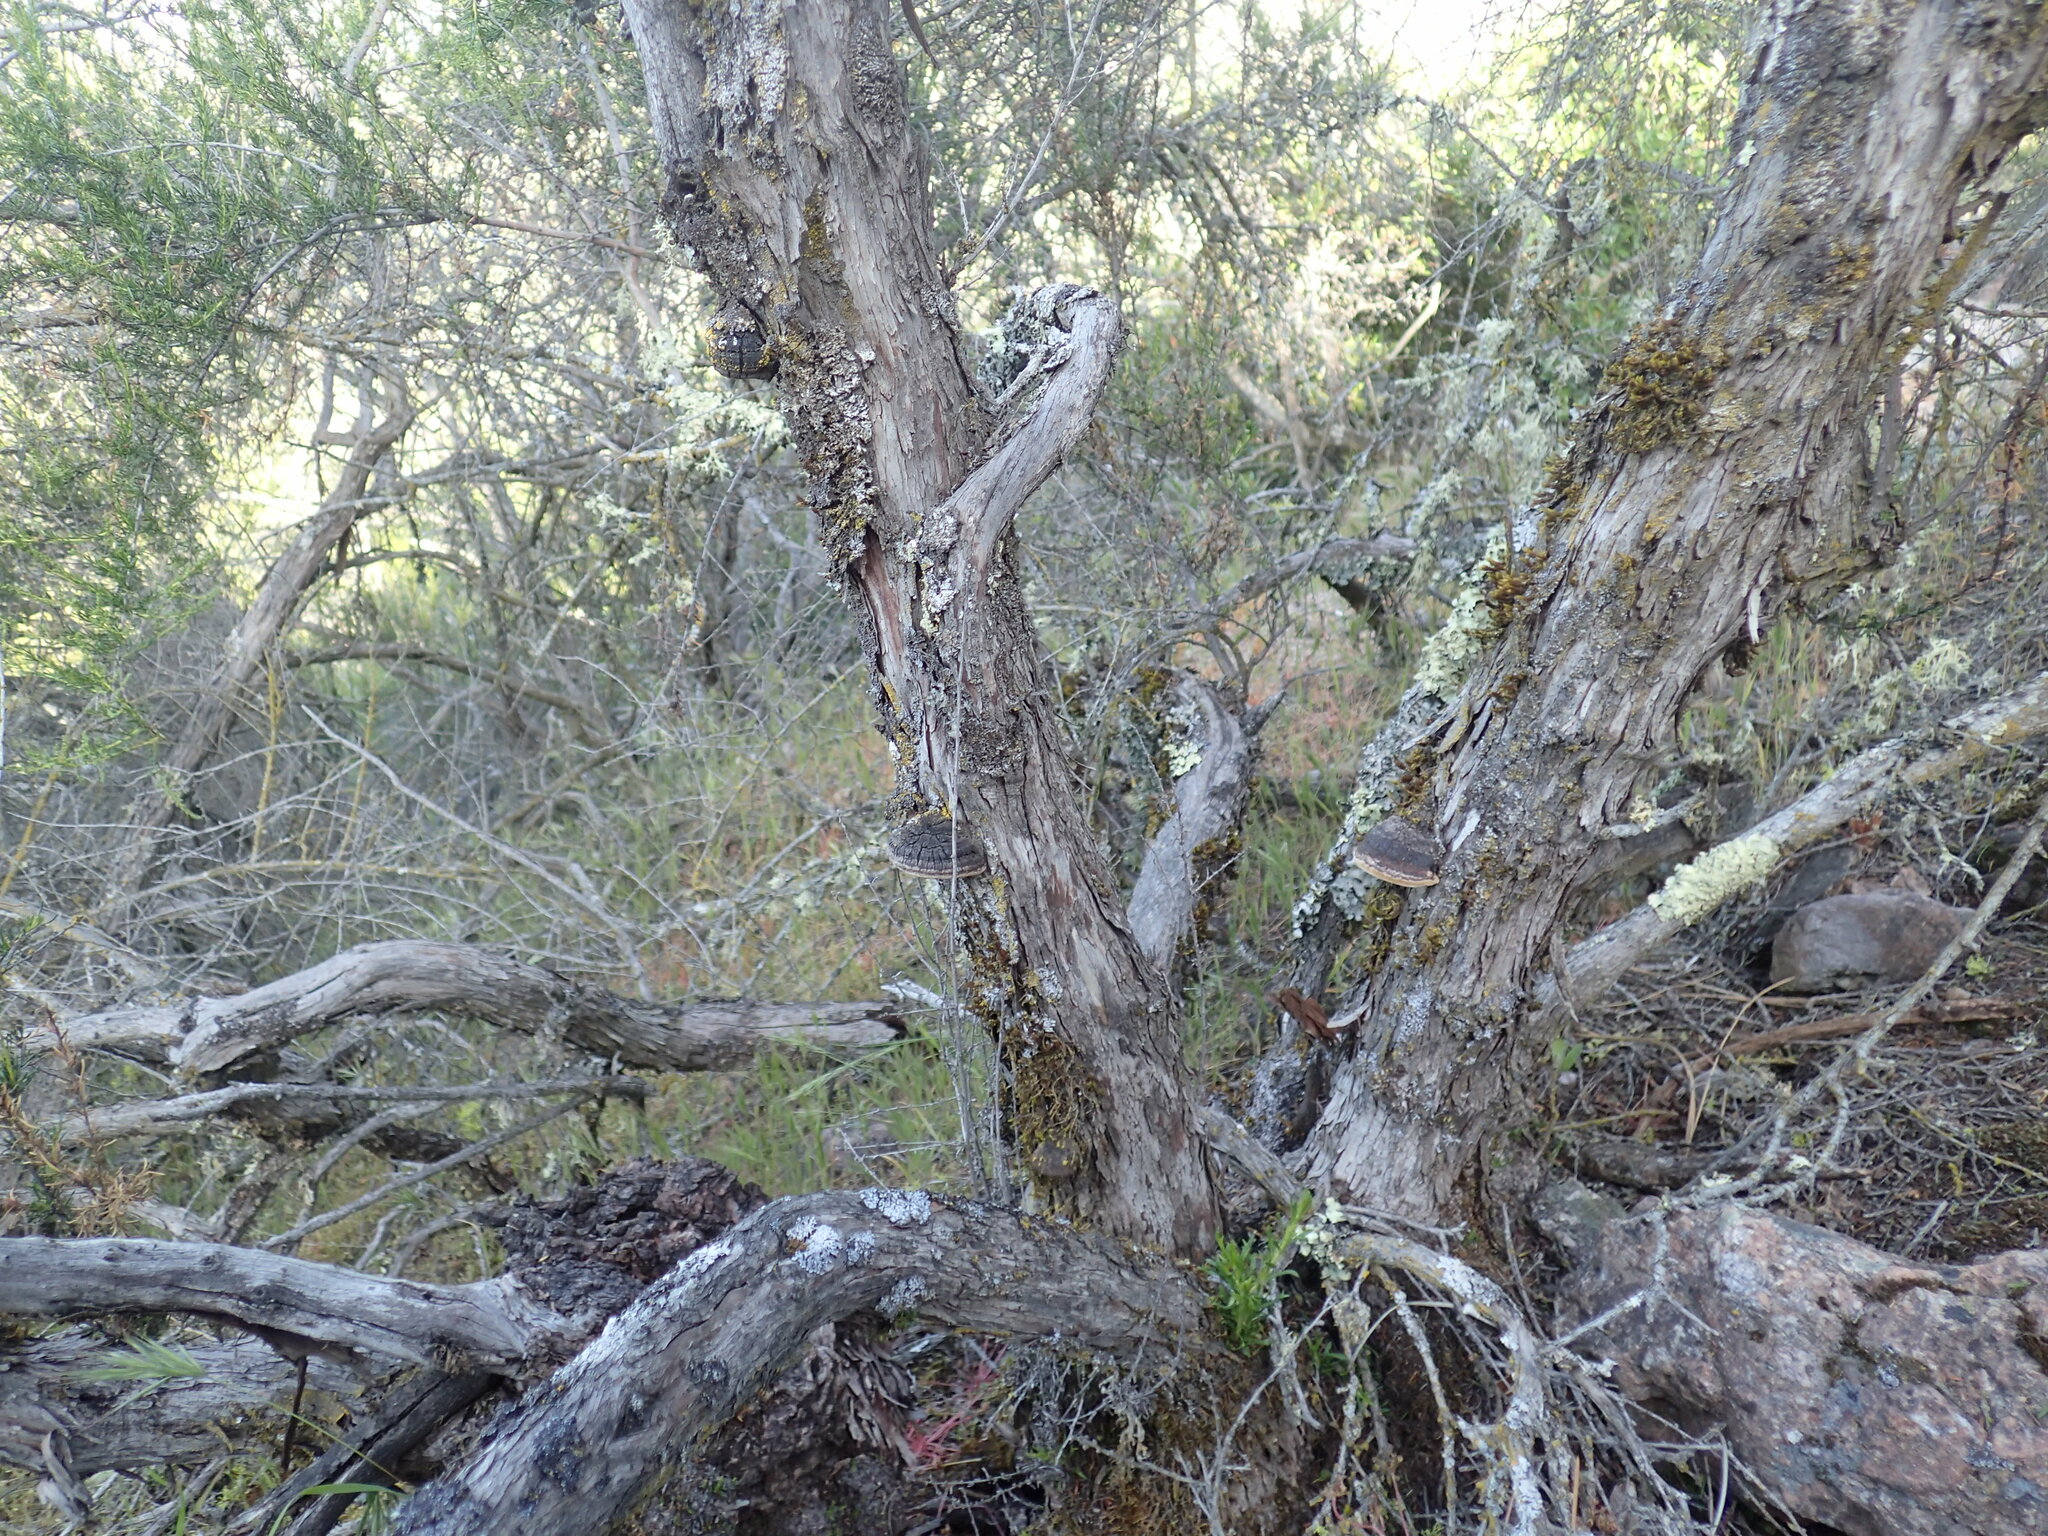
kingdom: Fungi
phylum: Basidiomycota
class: Agaricomycetes
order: Polyporales
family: Polyporaceae
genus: Fomes
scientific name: Fomes arctostaphyli
